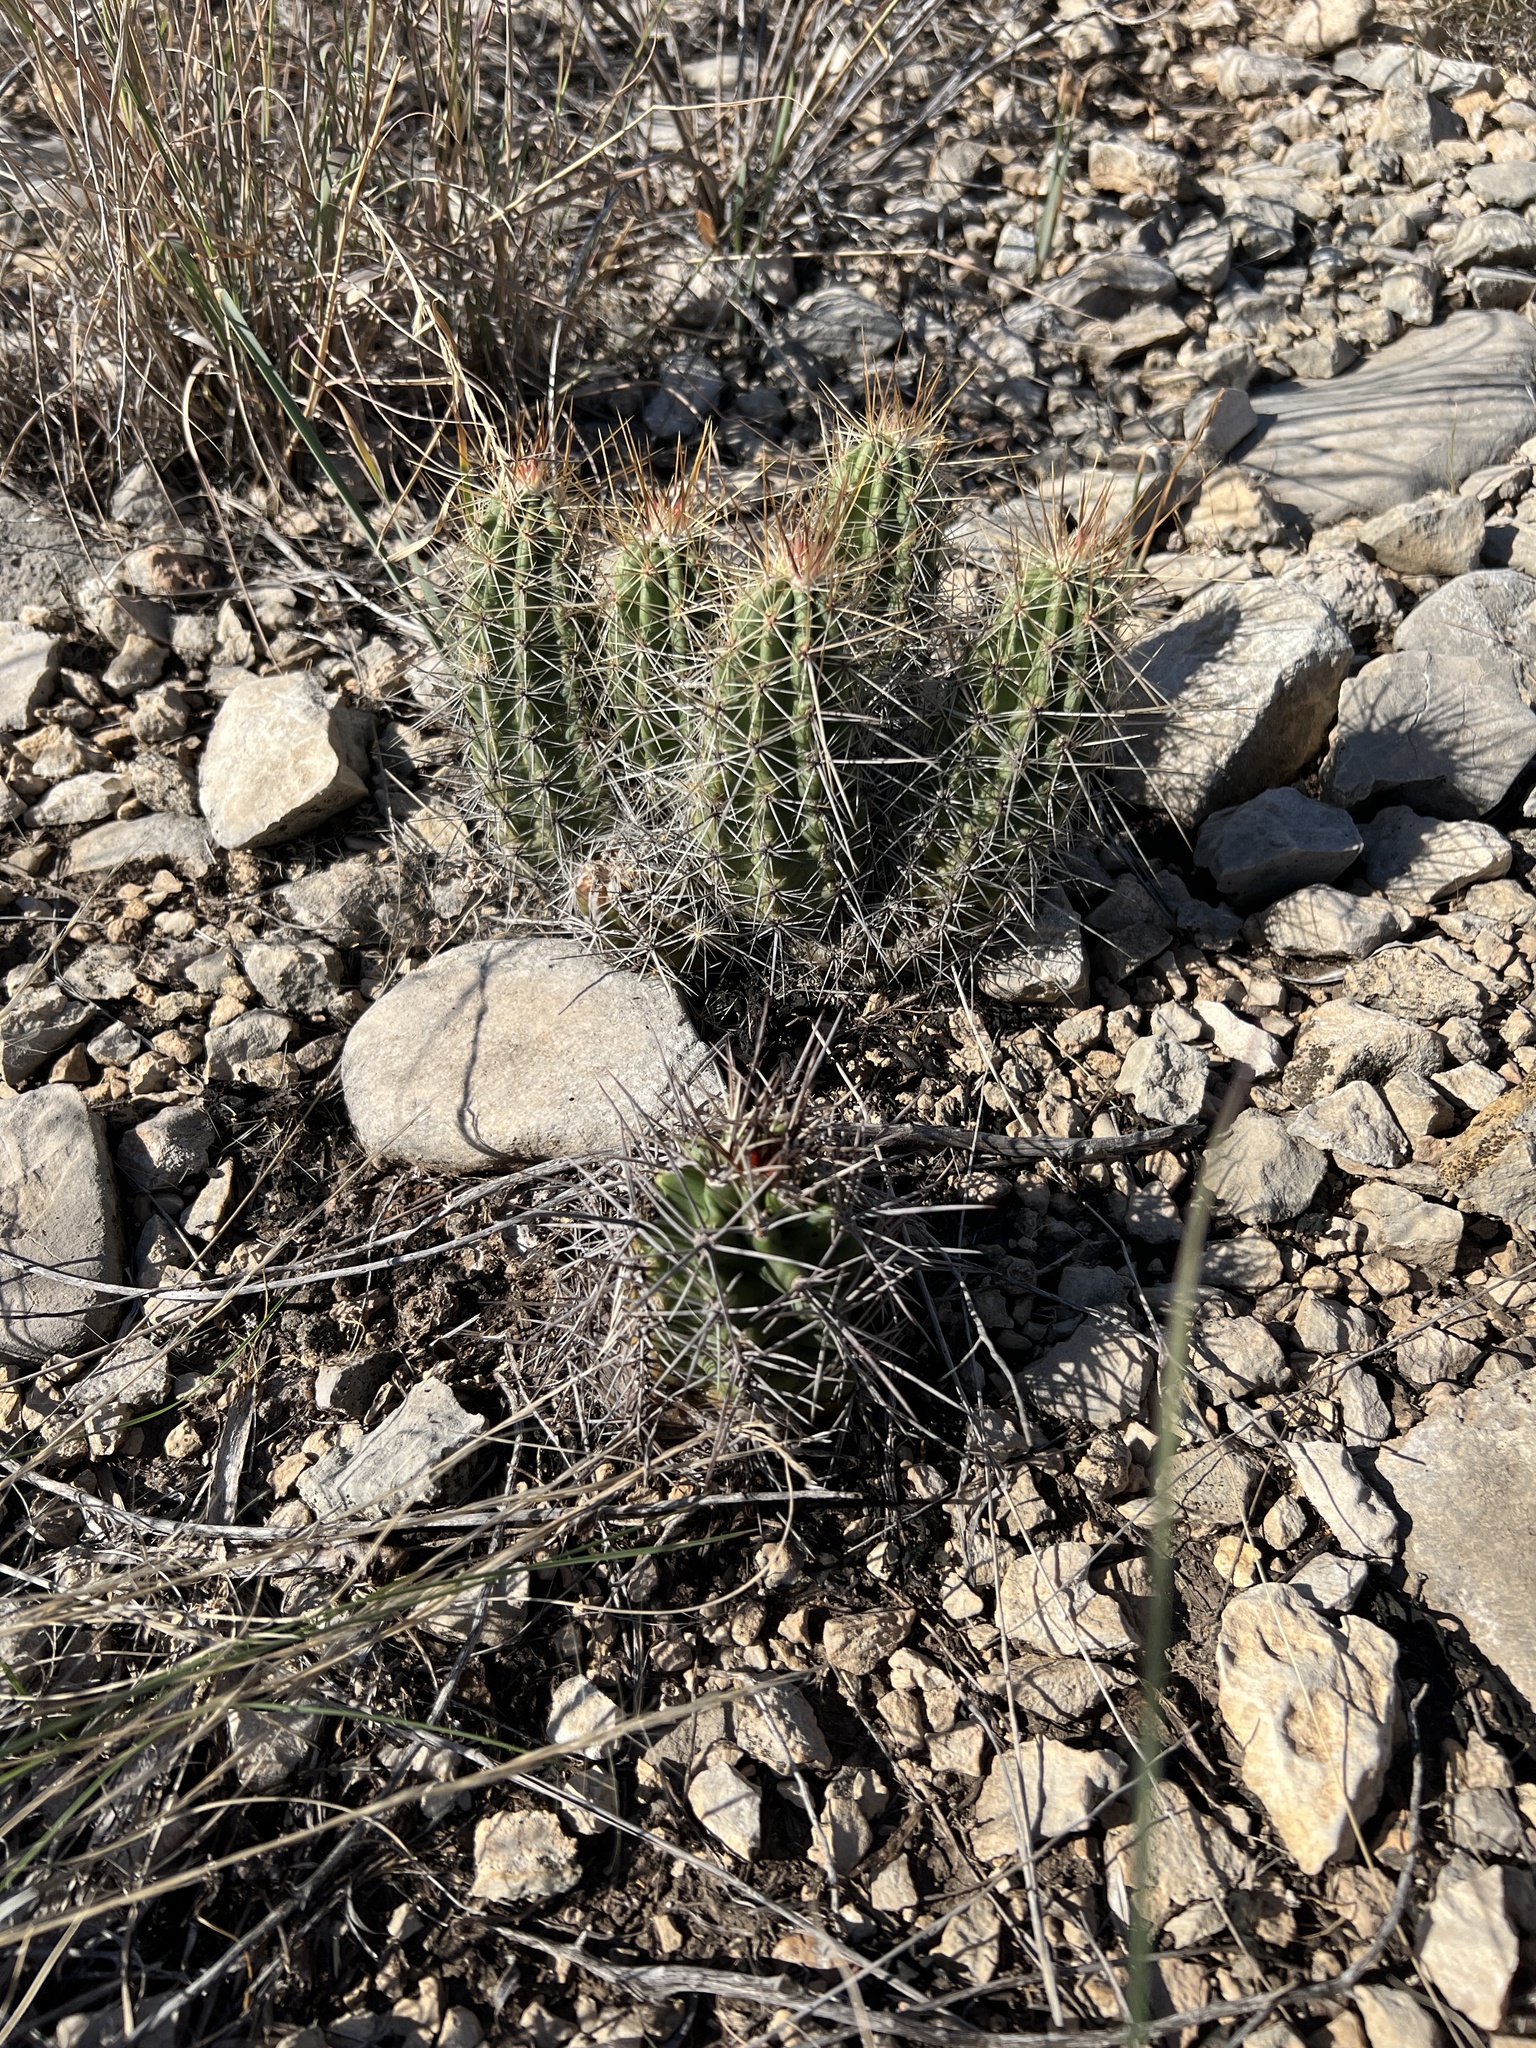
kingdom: Plantae
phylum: Tracheophyta
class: Magnoliopsida
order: Caryophyllales
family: Cactaceae
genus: Echinocereus
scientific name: Echinocereus enneacanthus
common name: Pitaya
